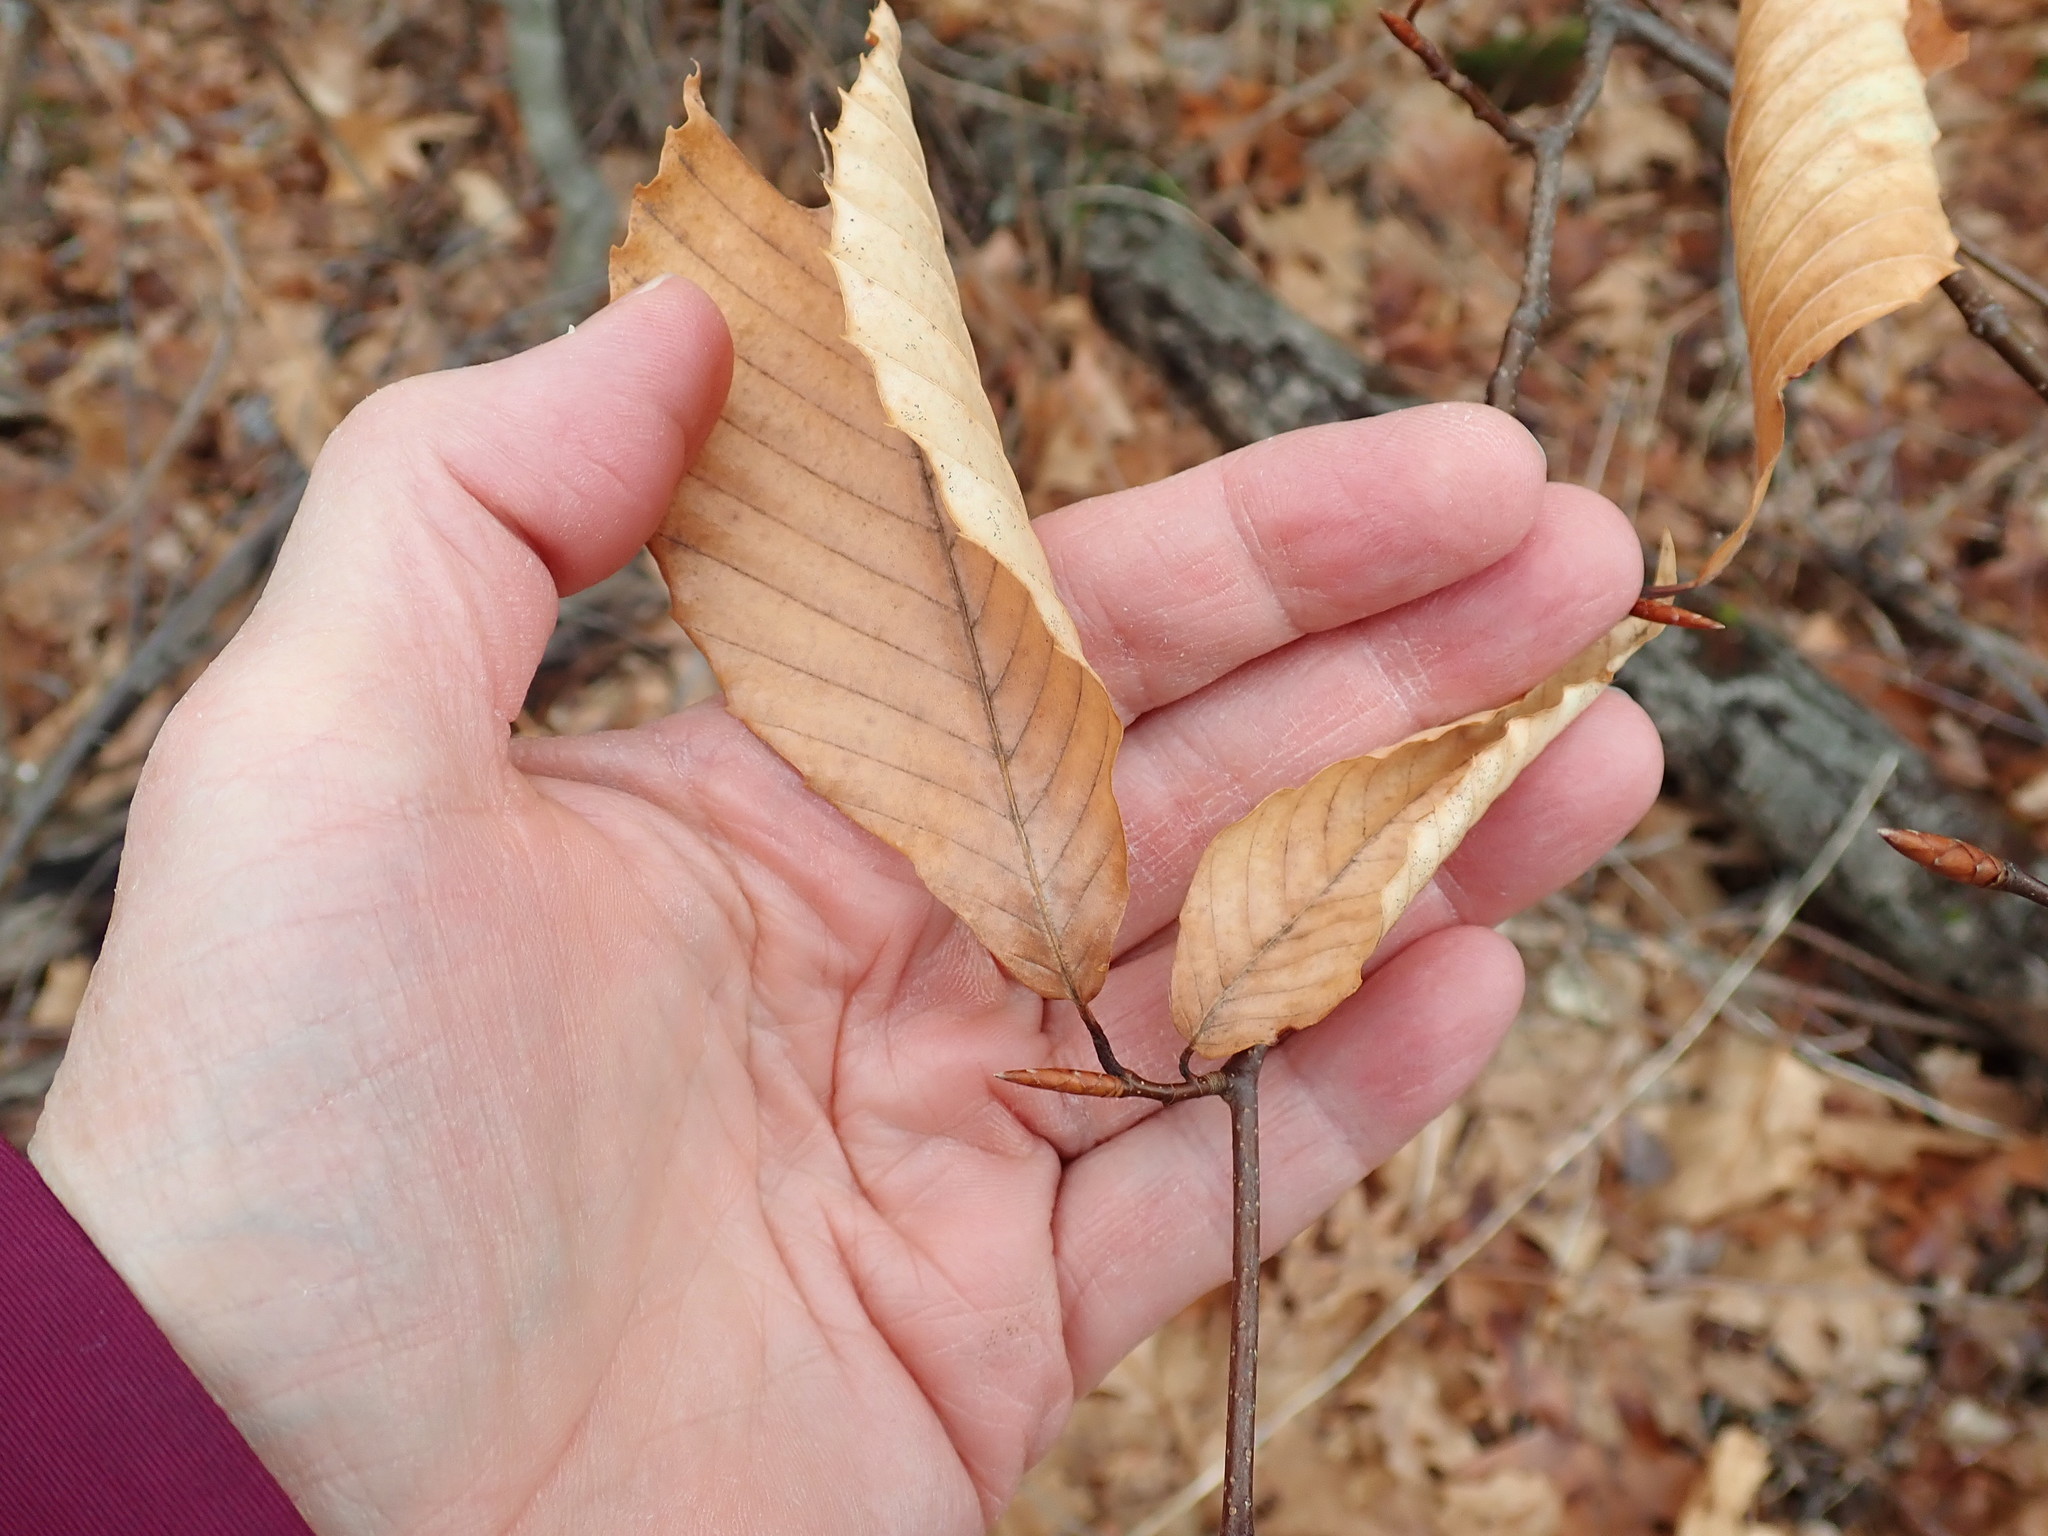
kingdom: Plantae
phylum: Tracheophyta
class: Magnoliopsida
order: Fagales
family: Fagaceae
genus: Fagus
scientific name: Fagus grandifolia
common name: American beech
